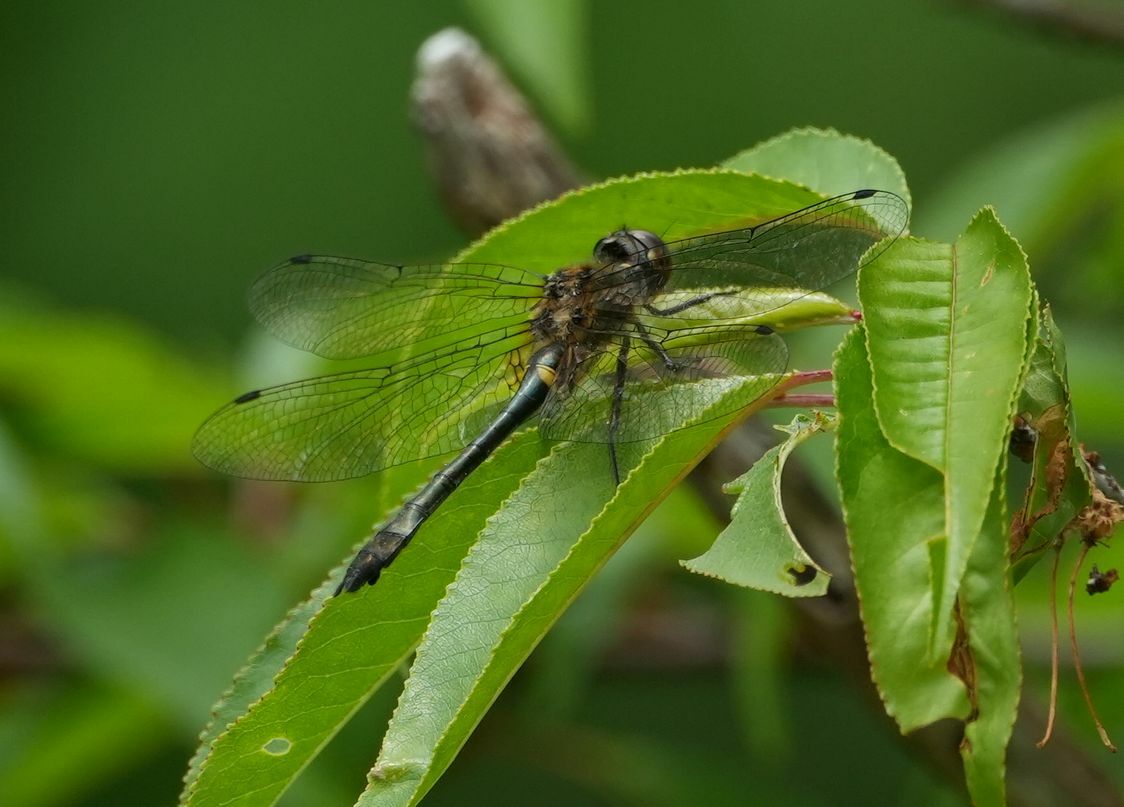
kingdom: Animalia
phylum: Arthropoda
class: Insecta
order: Odonata
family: Corduliidae
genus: Dorocordulia
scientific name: Dorocordulia libera
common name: Racket-tailed emerald
